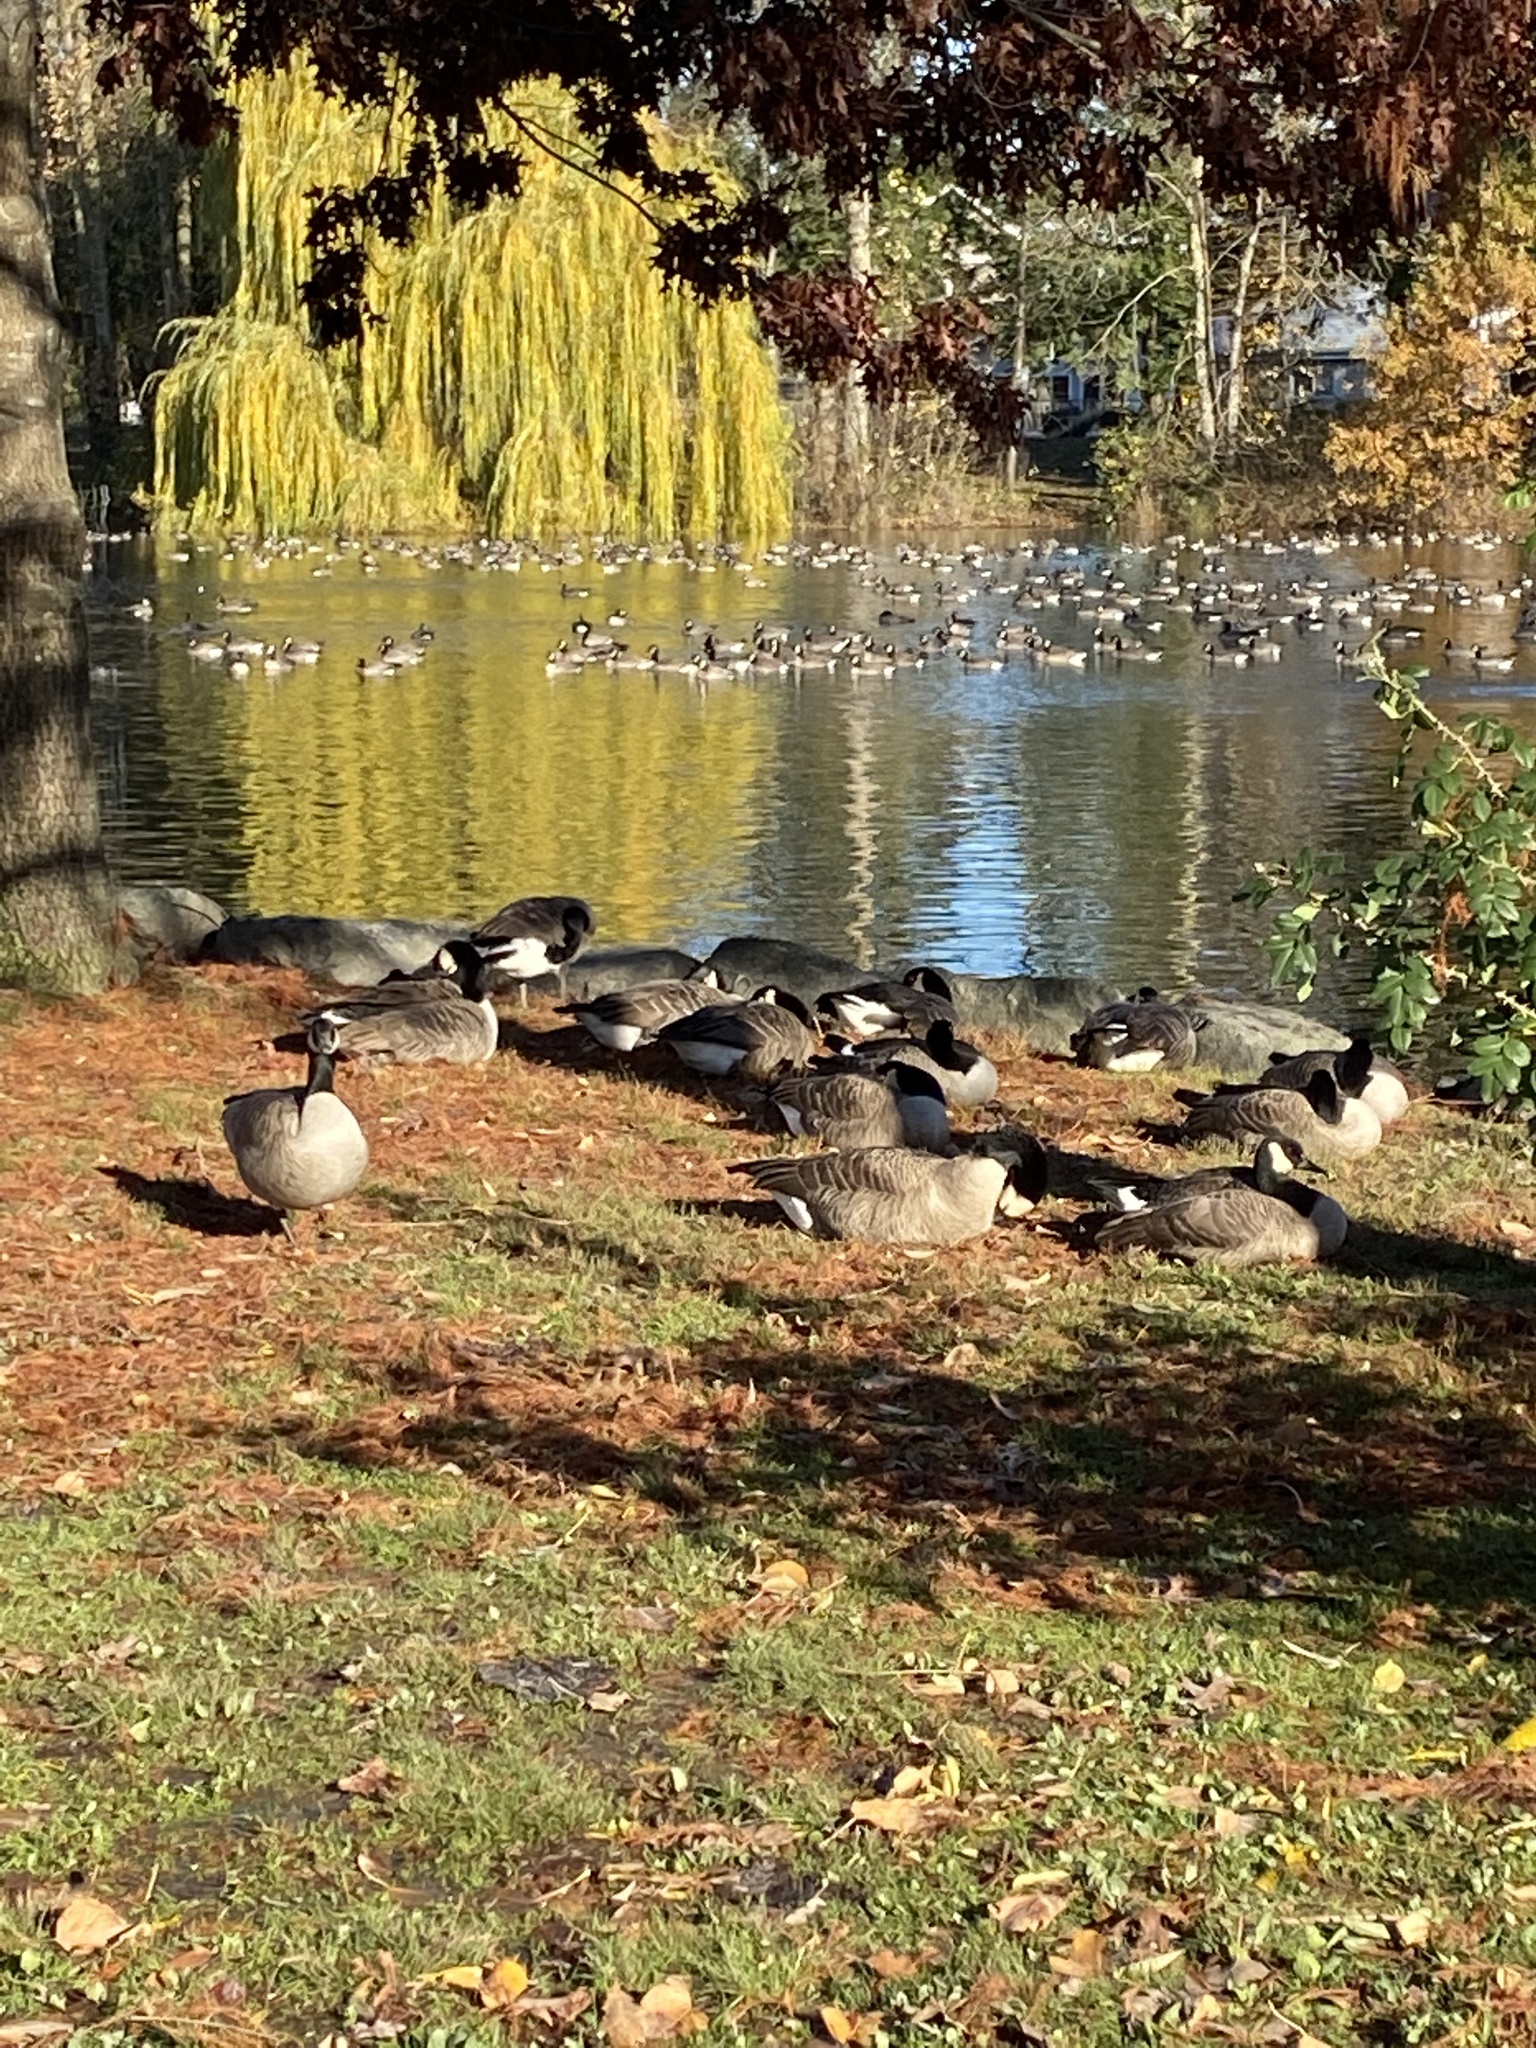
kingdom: Animalia
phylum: Chordata
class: Aves
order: Anseriformes
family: Anatidae
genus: Branta
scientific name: Branta canadensis
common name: Canada goose
